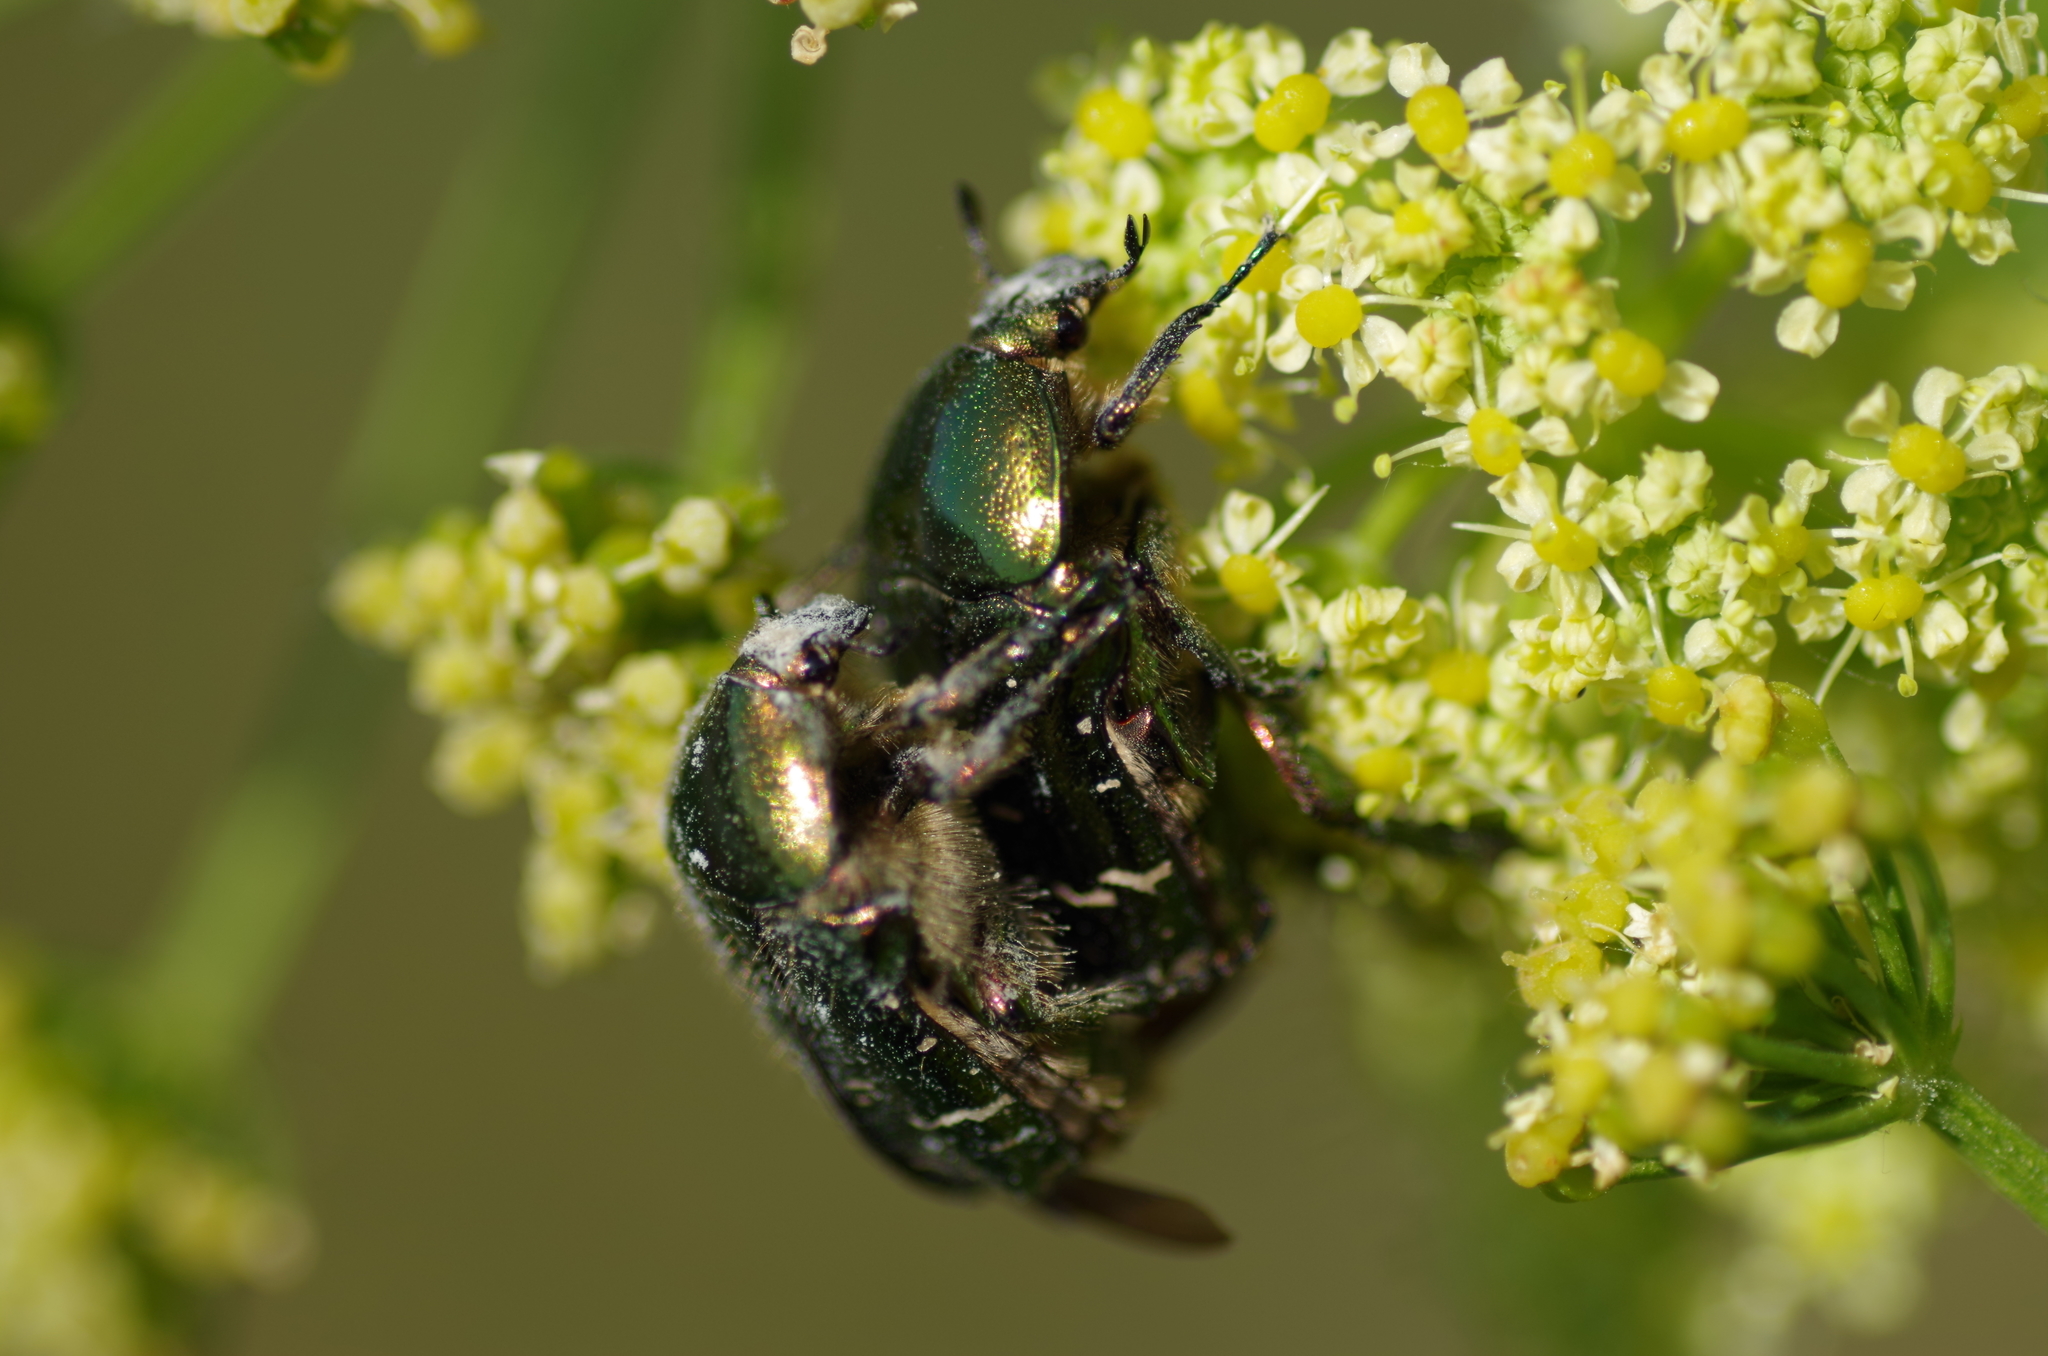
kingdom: Animalia
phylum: Arthropoda
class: Insecta
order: Coleoptera
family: Scarabaeidae
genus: Cetonia
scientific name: Cetonia aurata
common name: Rose chafer
